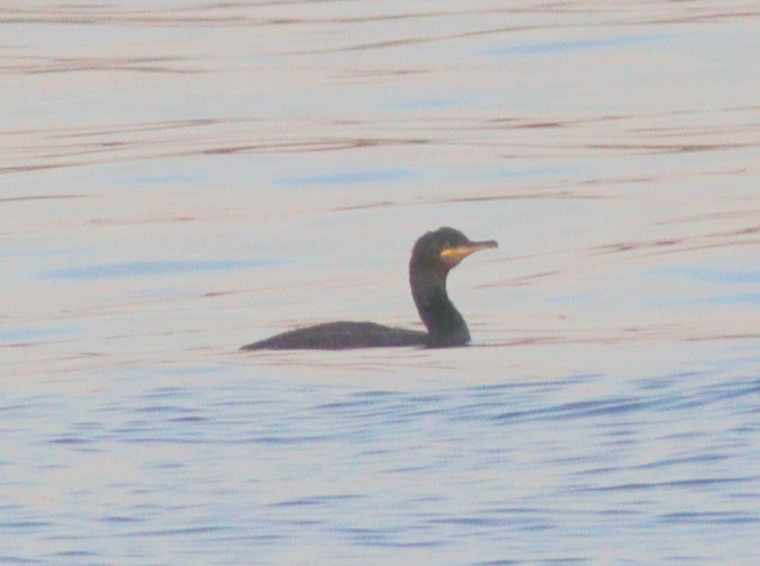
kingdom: Animalia
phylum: Chordata
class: Aves
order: Suliformes
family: Phalacrocoracidae
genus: Phalacrocorax
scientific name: Phalacrocorax aristotelis
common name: European shag
